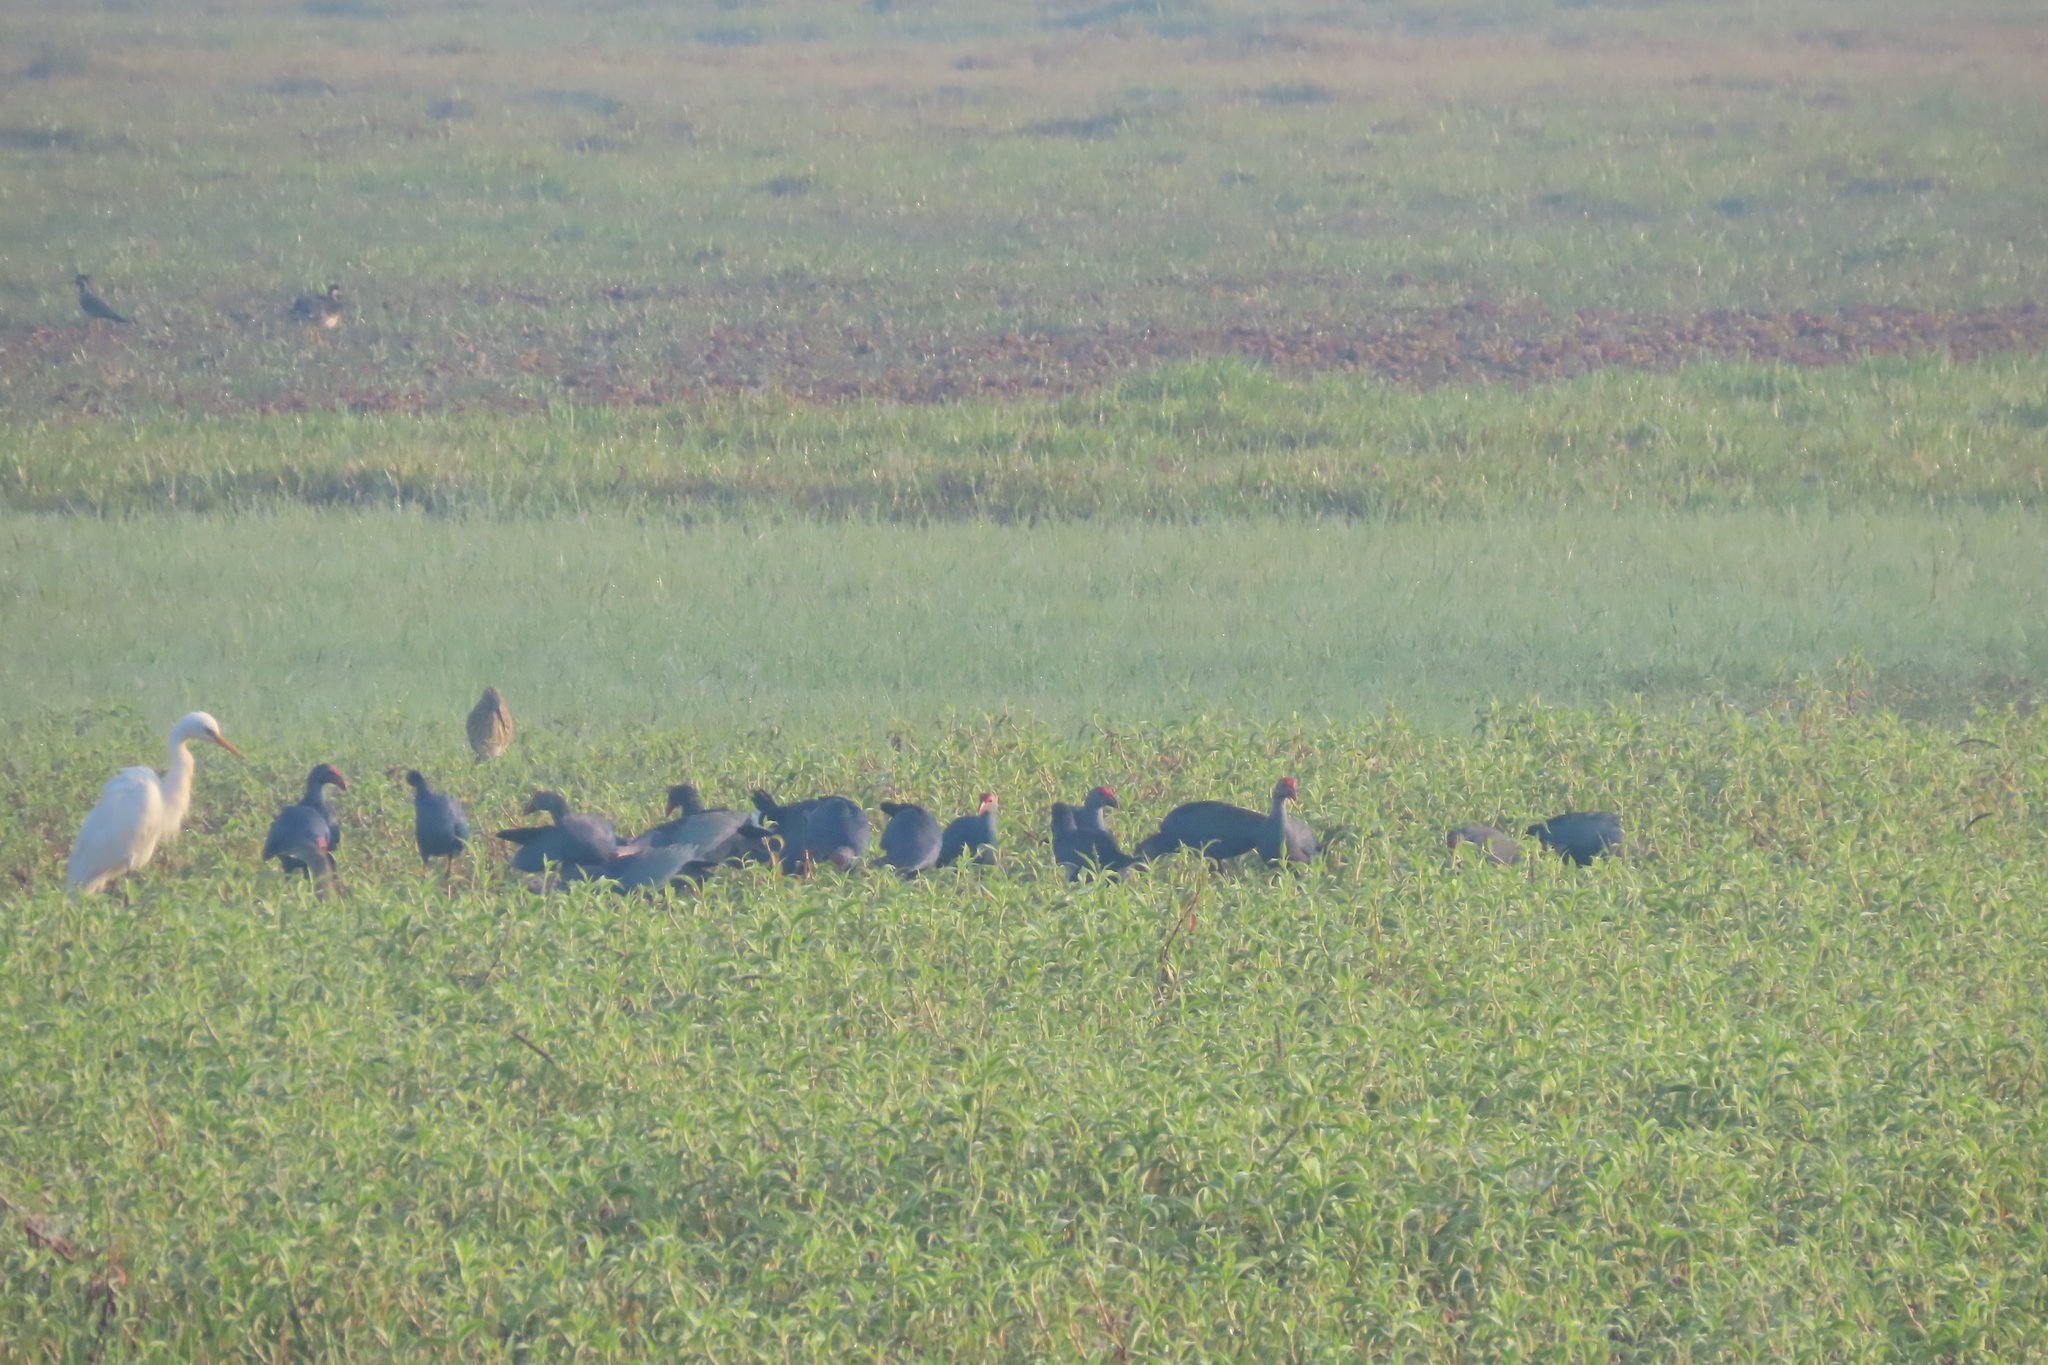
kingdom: Animalia
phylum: Chordata
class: Aves
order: Pelecaniformes
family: Ardeidae
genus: Bubulcus
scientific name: Bubulcus coromandus
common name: Eastern cattle egret
